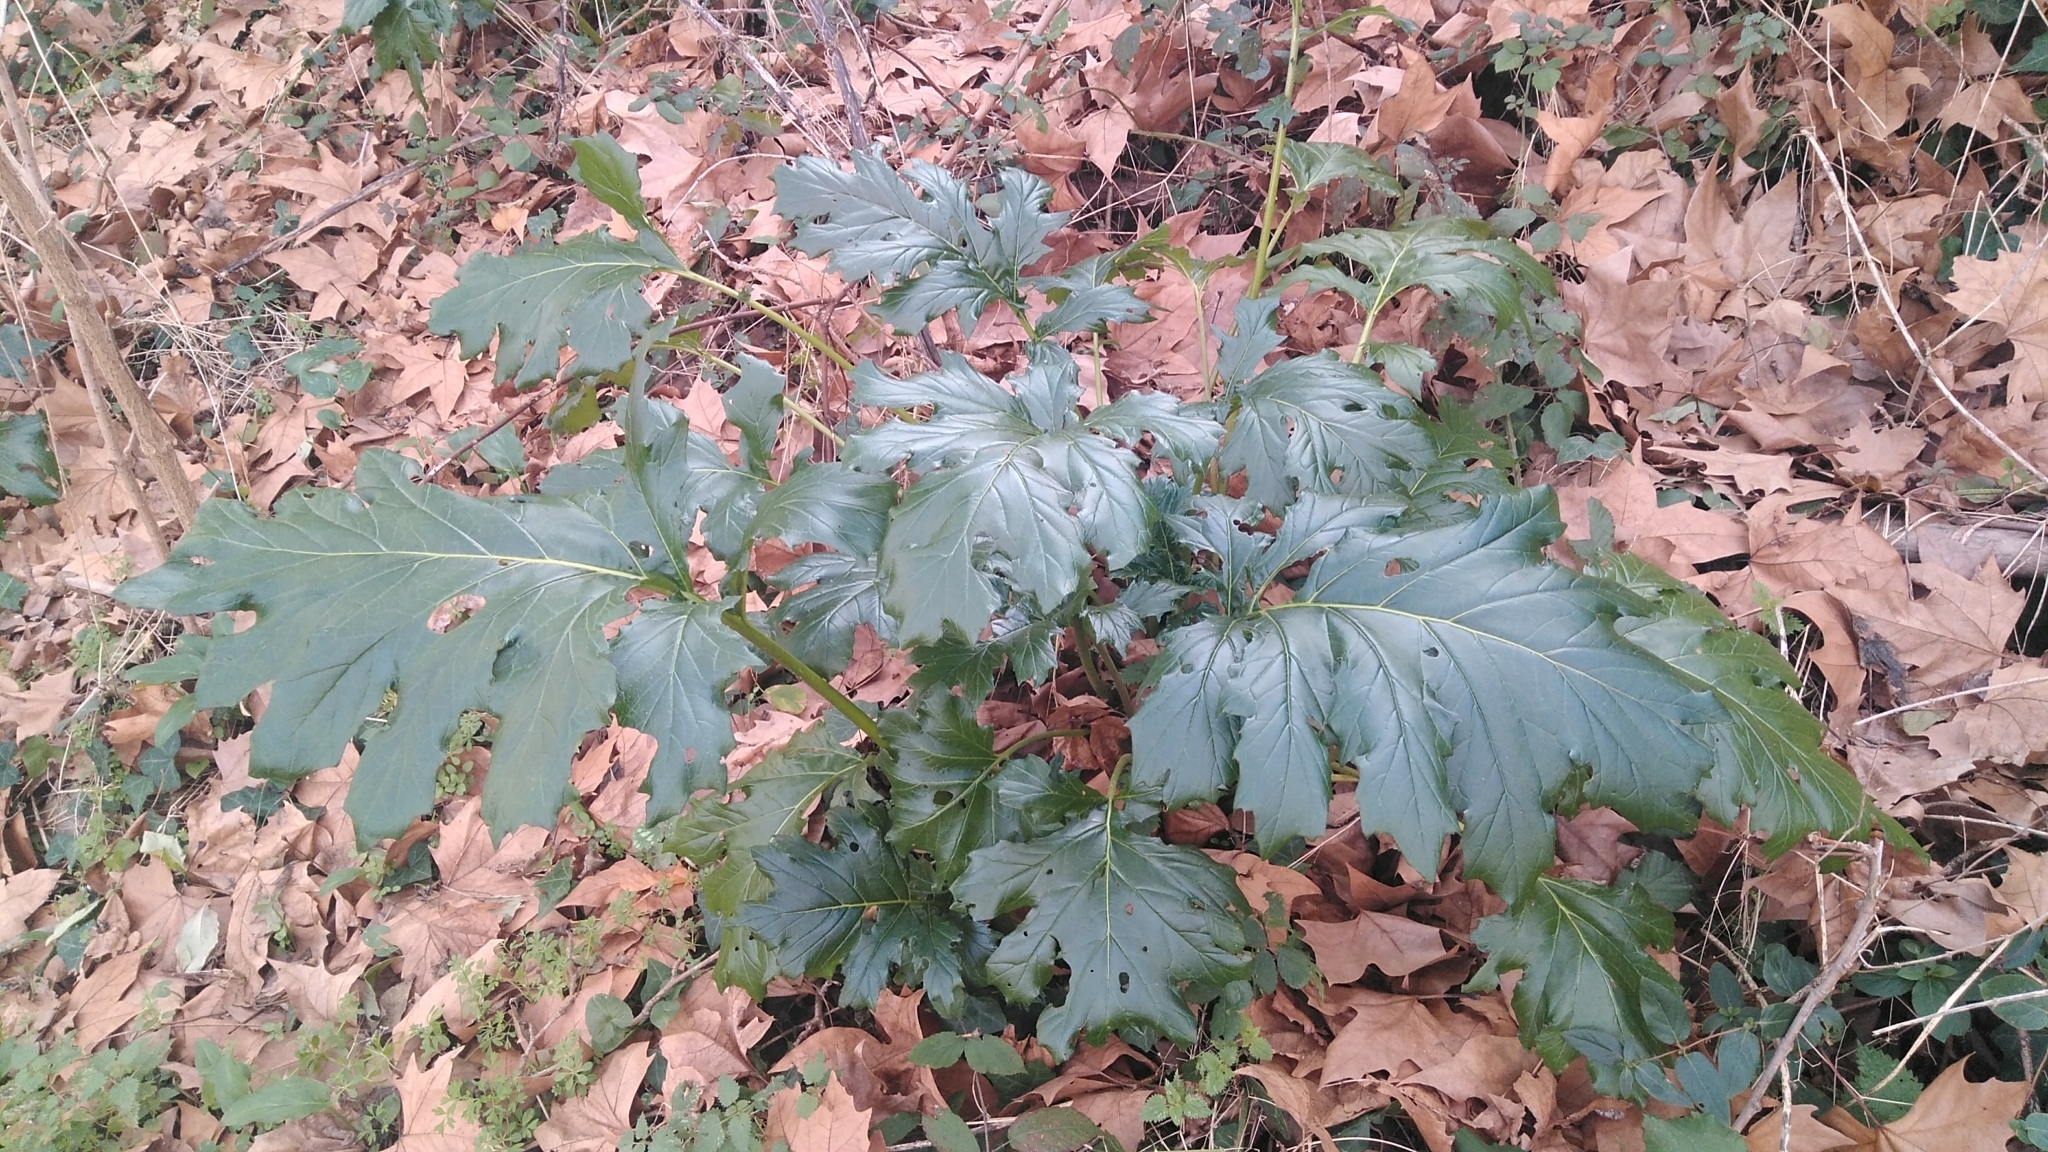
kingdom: Plantae
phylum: Tracheophyta
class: Magnoliopsida
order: Lamiales
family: Acanthaceae
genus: Acanthus
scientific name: Acanthus mollis
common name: Bear's-breech
